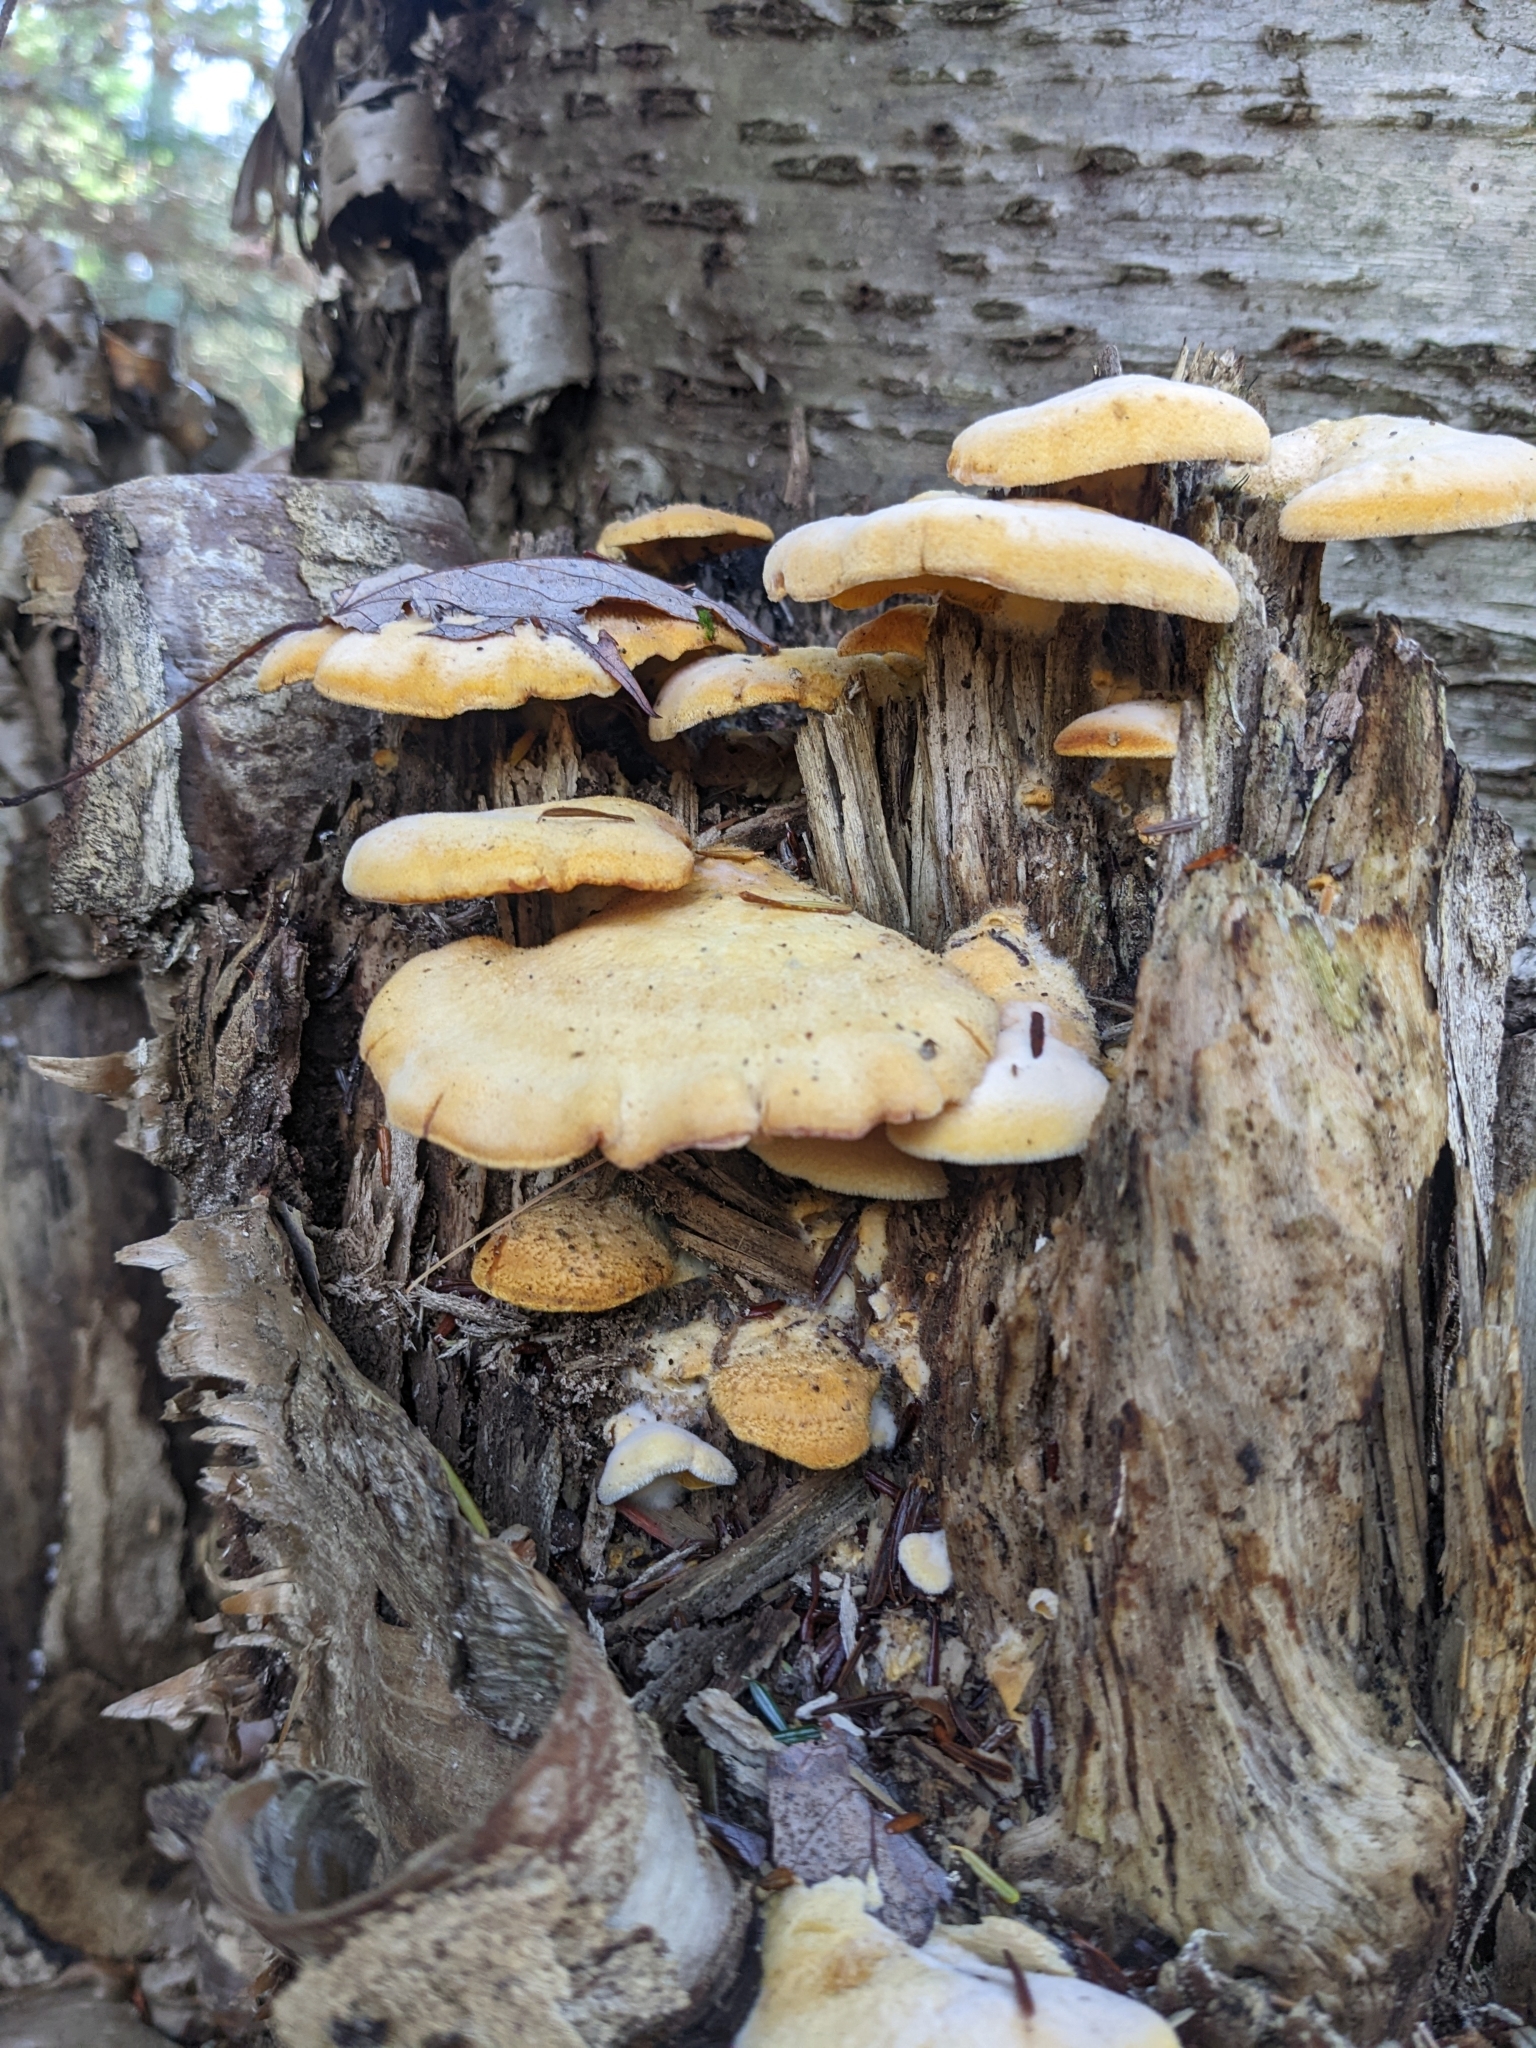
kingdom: Fungi
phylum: Basidiomycota
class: Agaricomycetes
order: Agaricales
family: Phyllotopsidaceae
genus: Phyllotopsis
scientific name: Phyllotopsis nidulans
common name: Orange mock oyster
